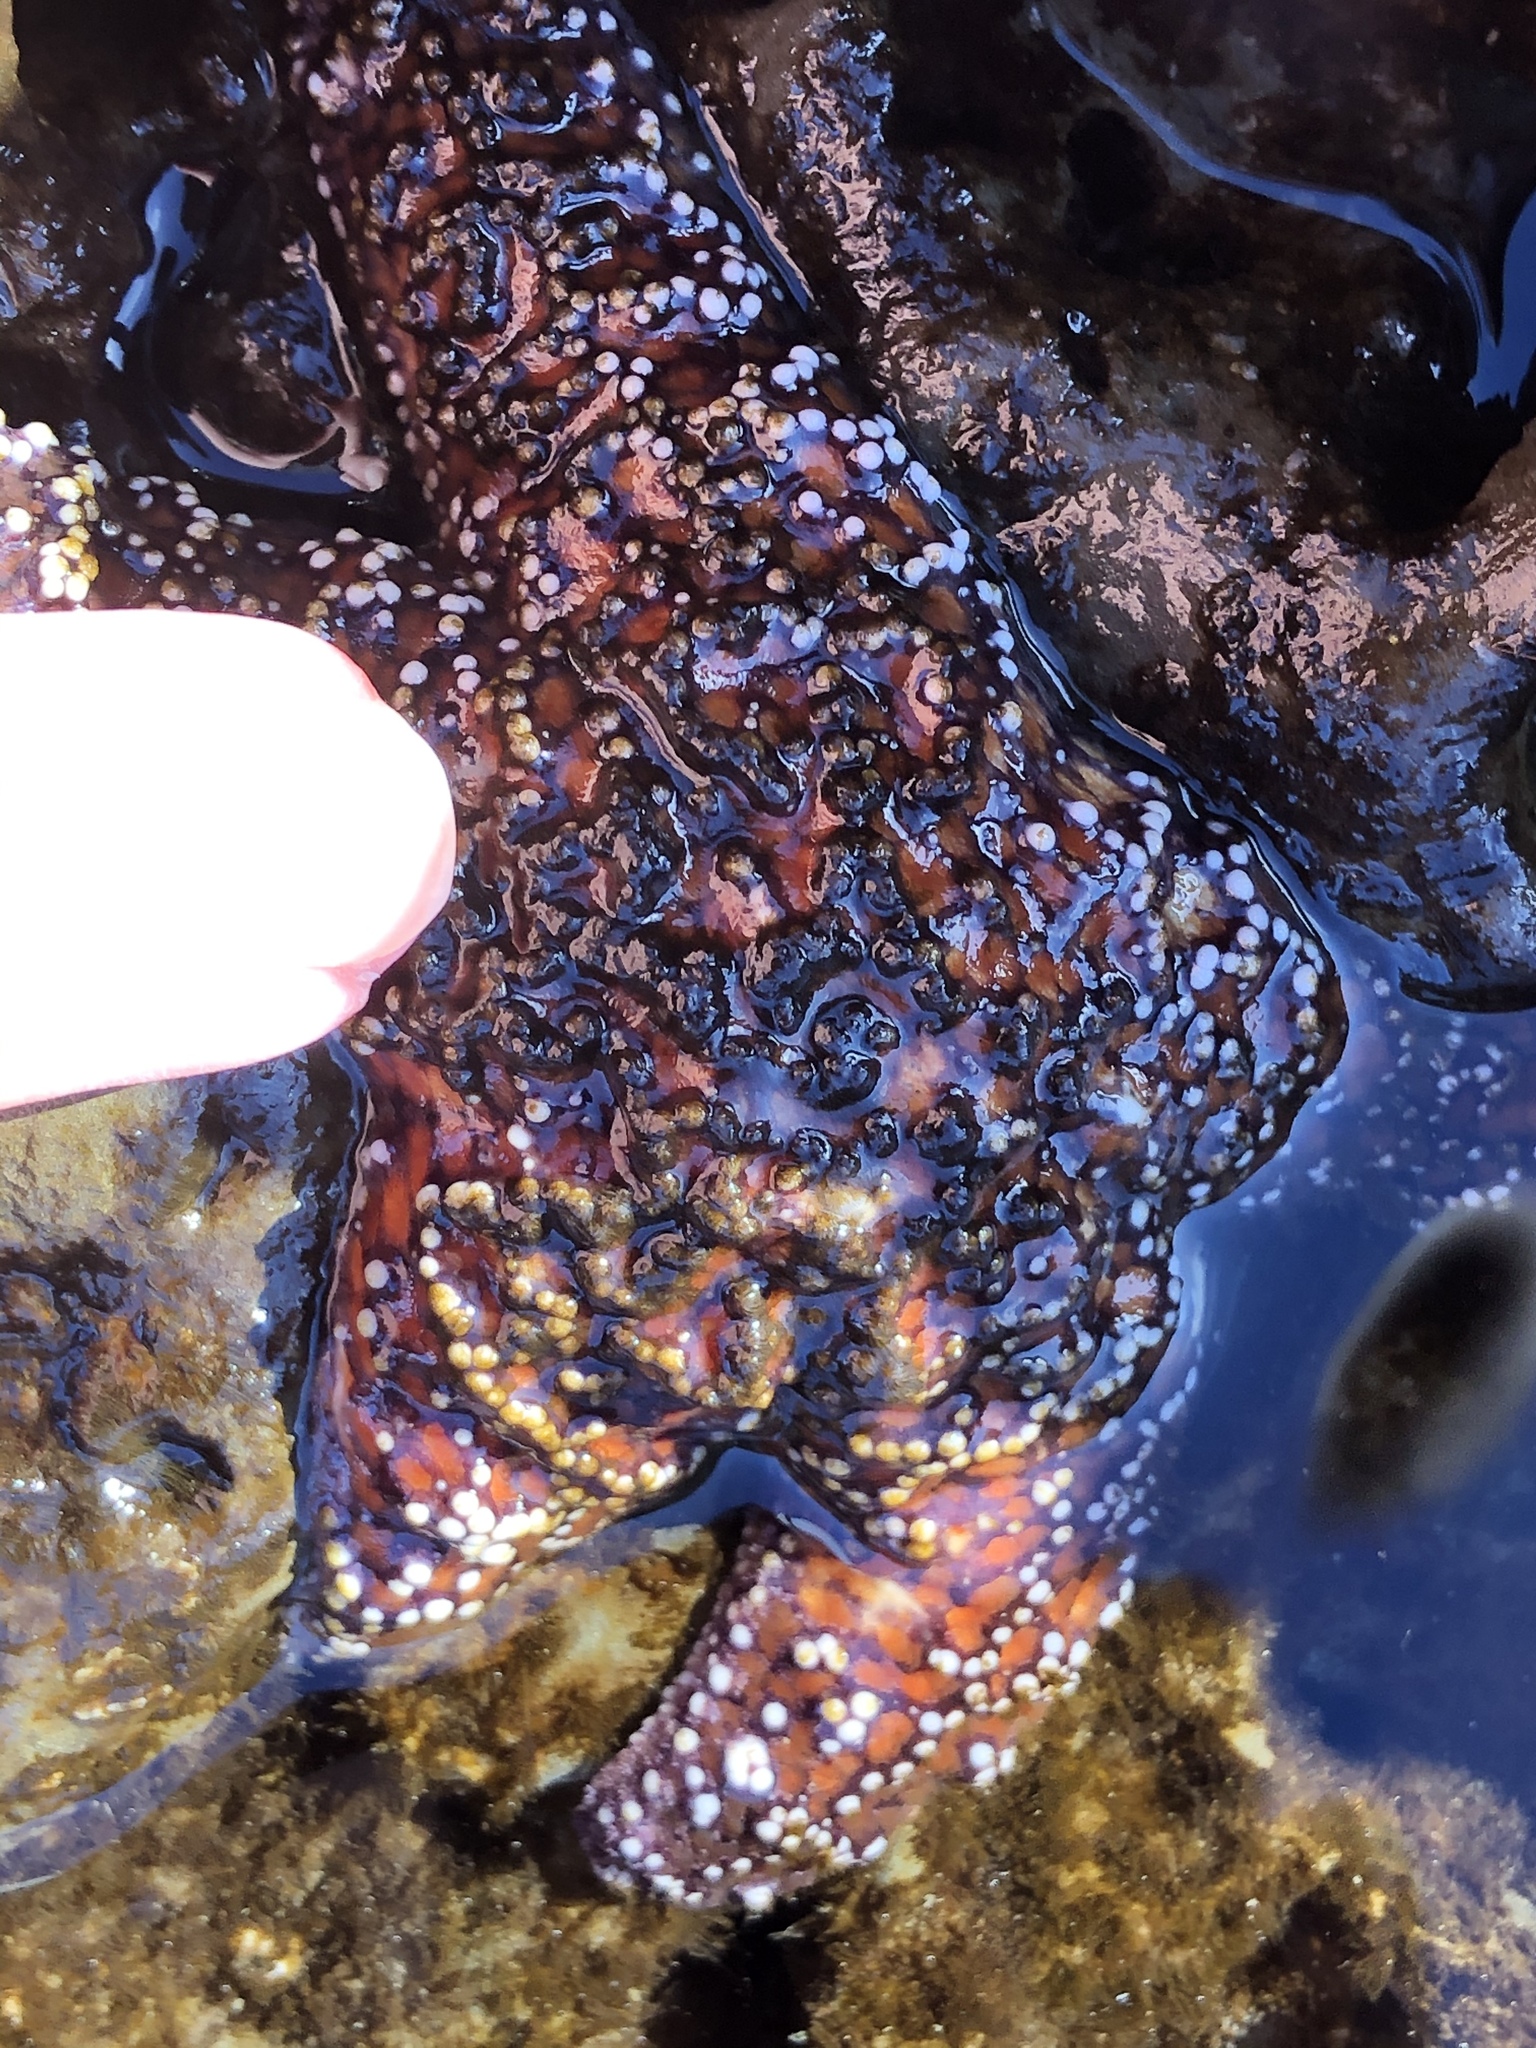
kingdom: Animalia
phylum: Echinodermata
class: Asteroidea
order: Forcipulatida
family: Asteriidae
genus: Pisaster
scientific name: Pisaster ochraceus
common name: Ochre stars
